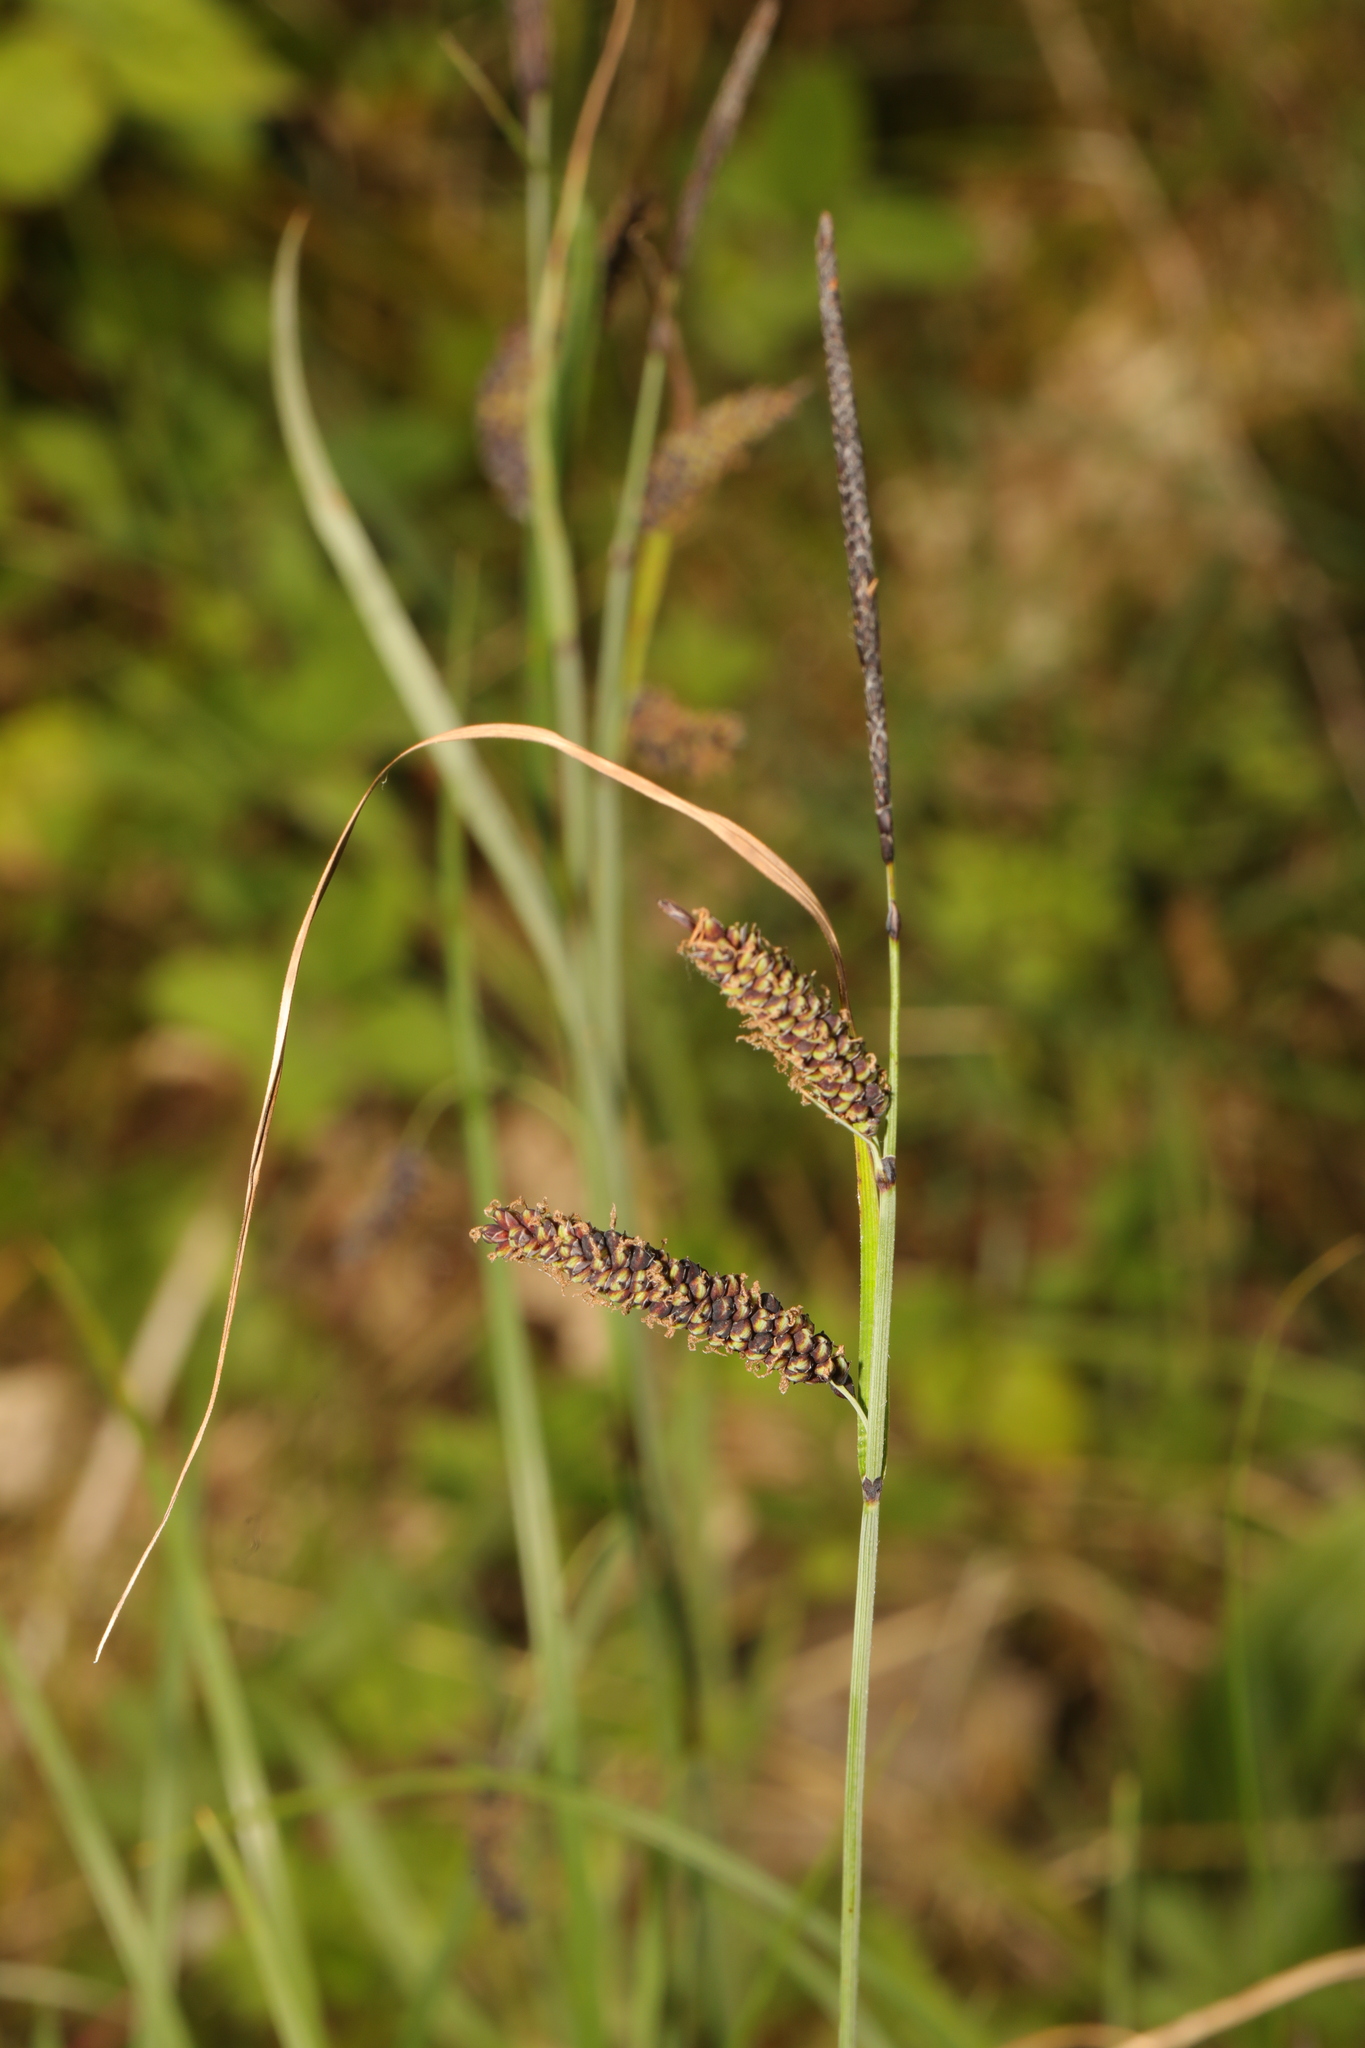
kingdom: Plantae
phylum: Tracheophyta
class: Liliopsida
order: Poales
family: Cyperaceae
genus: Carex
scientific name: Carex flacca
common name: Glaucous sedge
